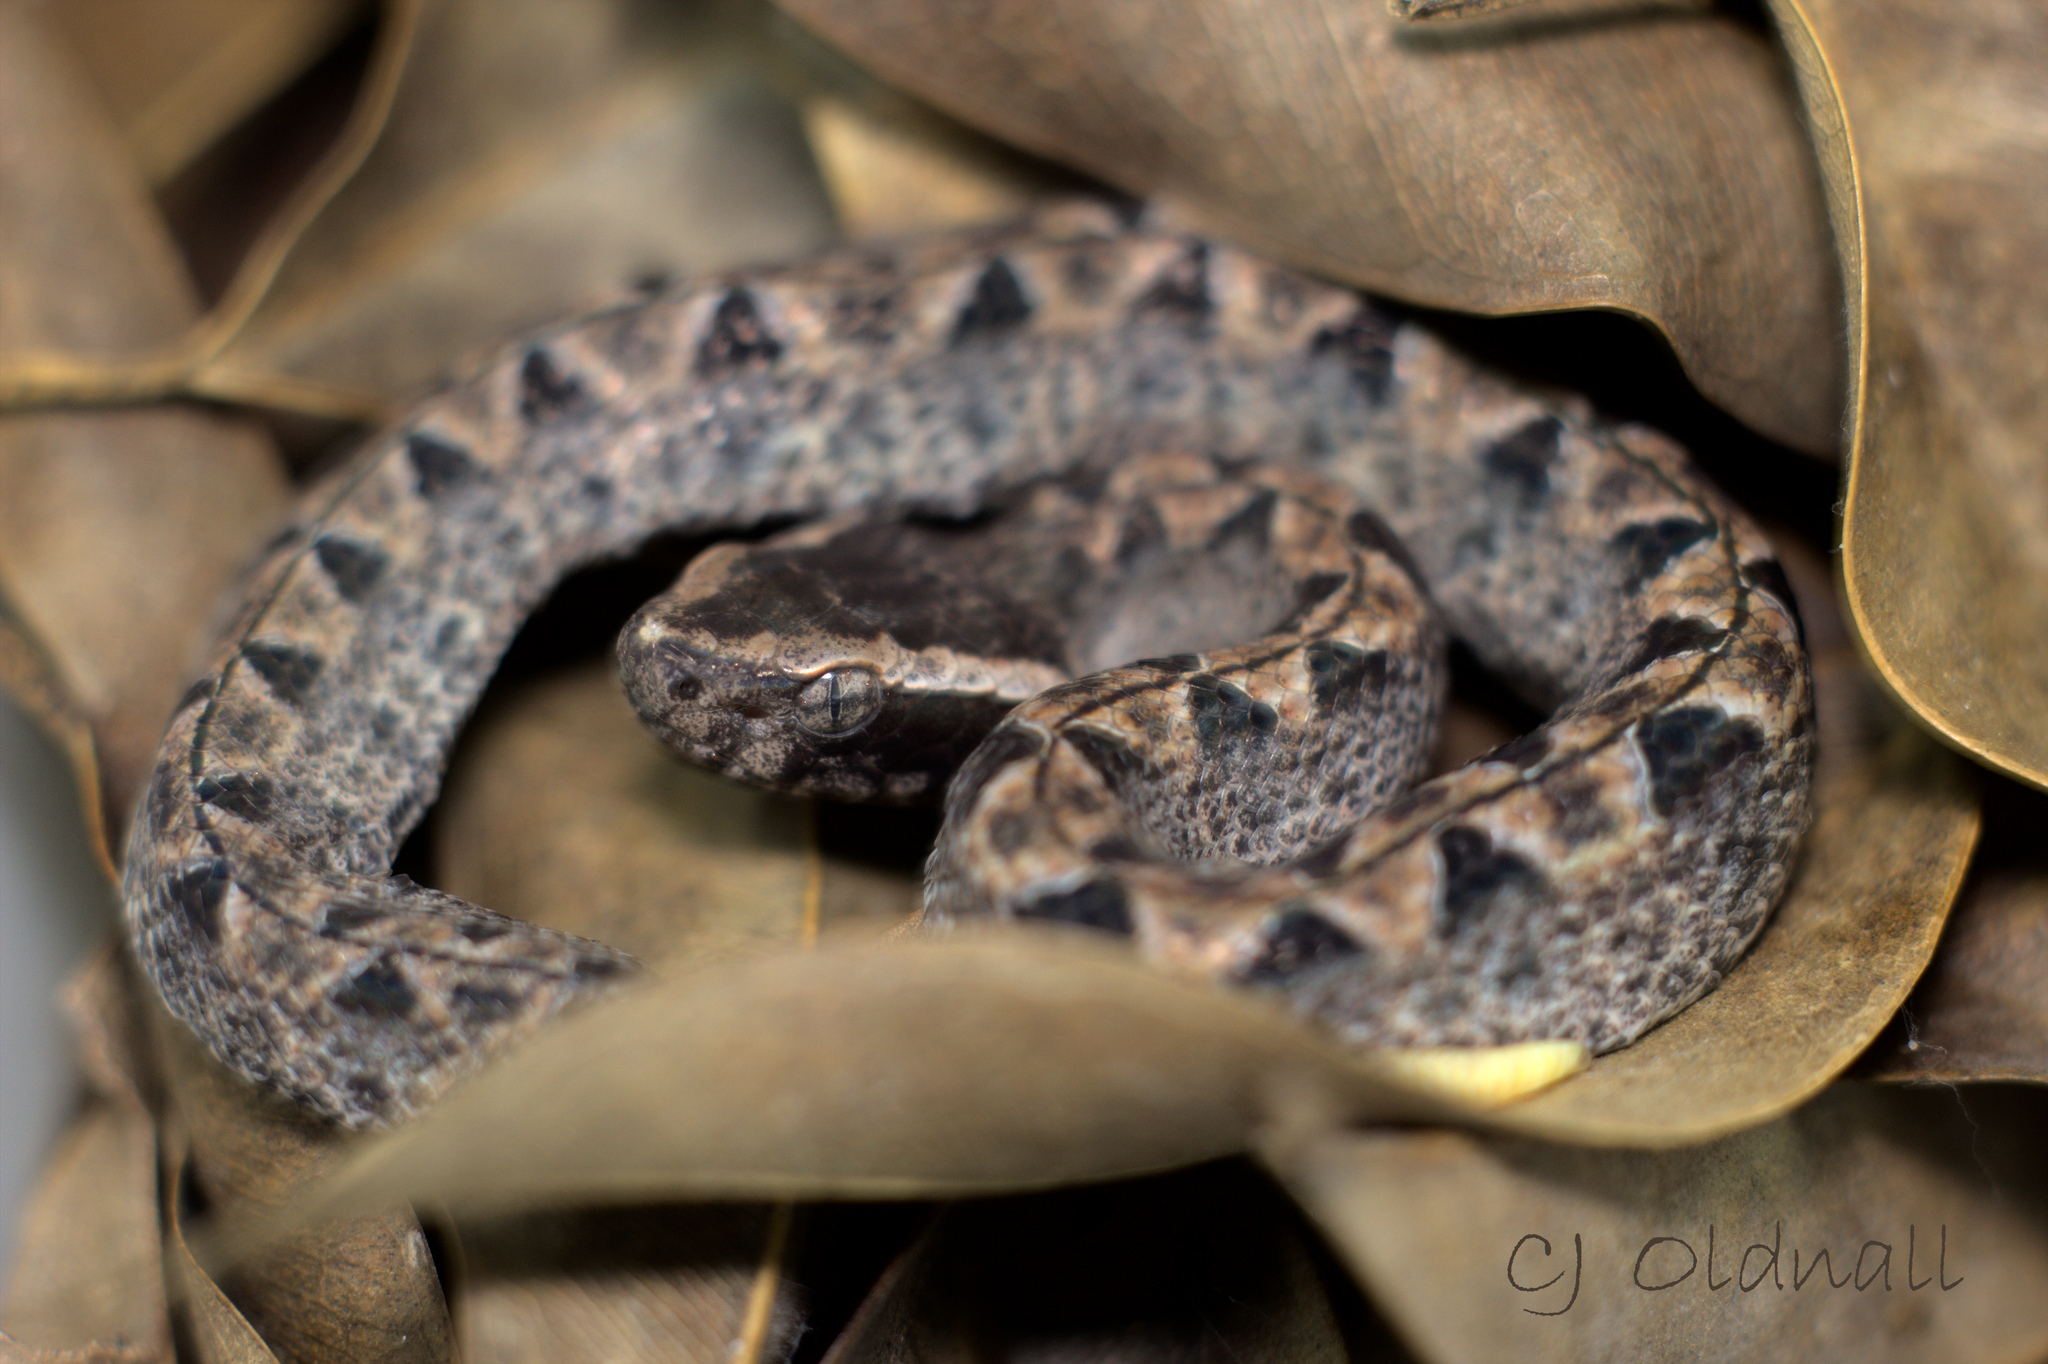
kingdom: Animalia
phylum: Chordata
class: Squamata
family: Viperidae
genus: Calloselasma
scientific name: Calloselasma rhodostoma
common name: Malayan pit viper
